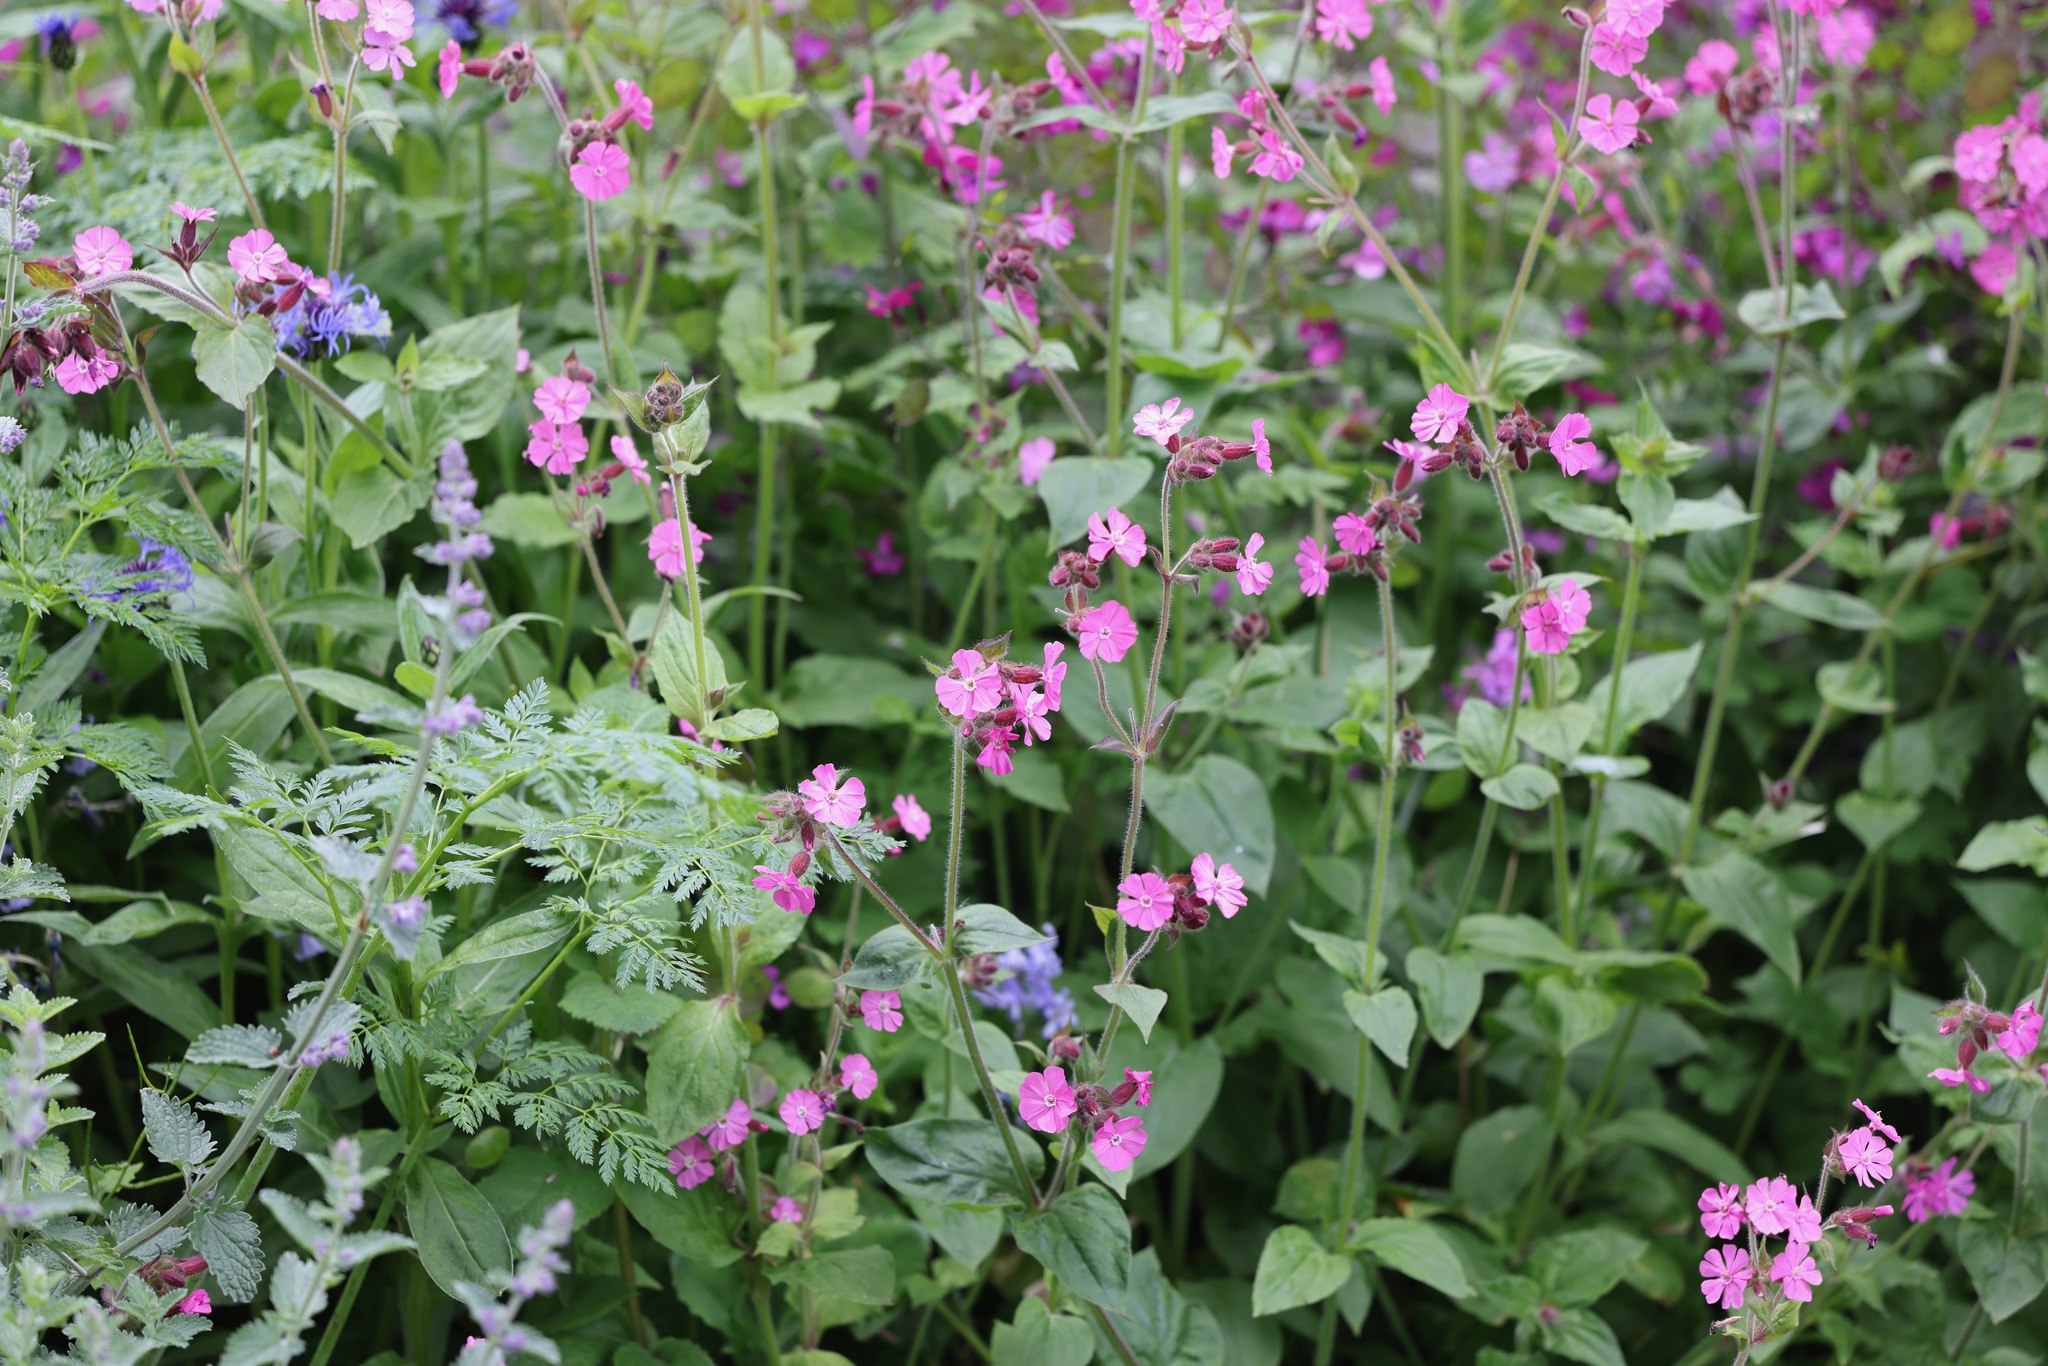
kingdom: Plantae
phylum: Tracheophyta
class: Magnoliopsida
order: Caryophyllales
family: Caryophyllaceae
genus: Silene
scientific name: Silene dioica
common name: Red campion
